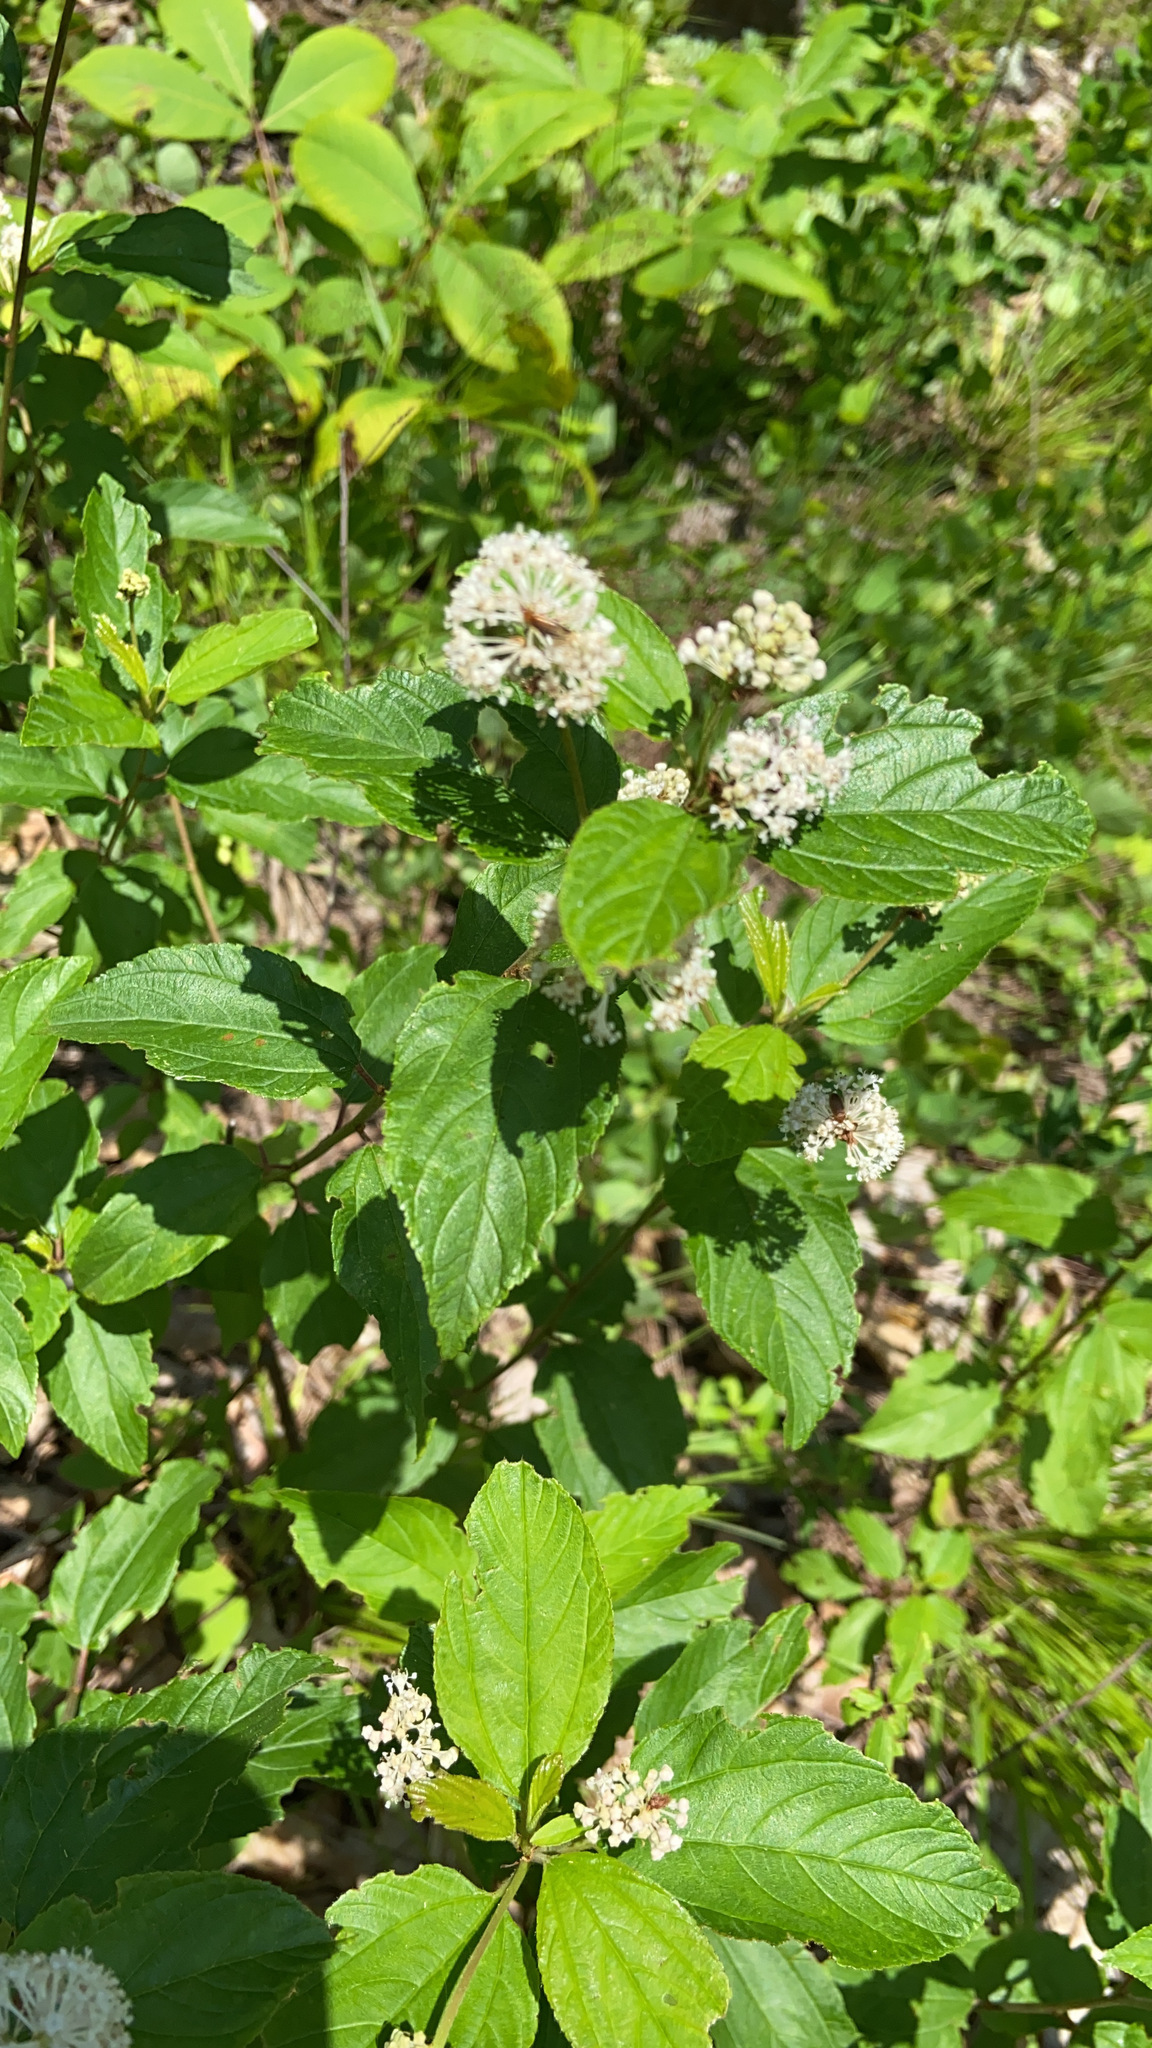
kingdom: Plantae
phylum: Tracheophyta
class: Magnoliopsida
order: Rosales
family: Rhamnaceae
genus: Ceanothus
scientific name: Ceanothus americanus
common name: Redroot
